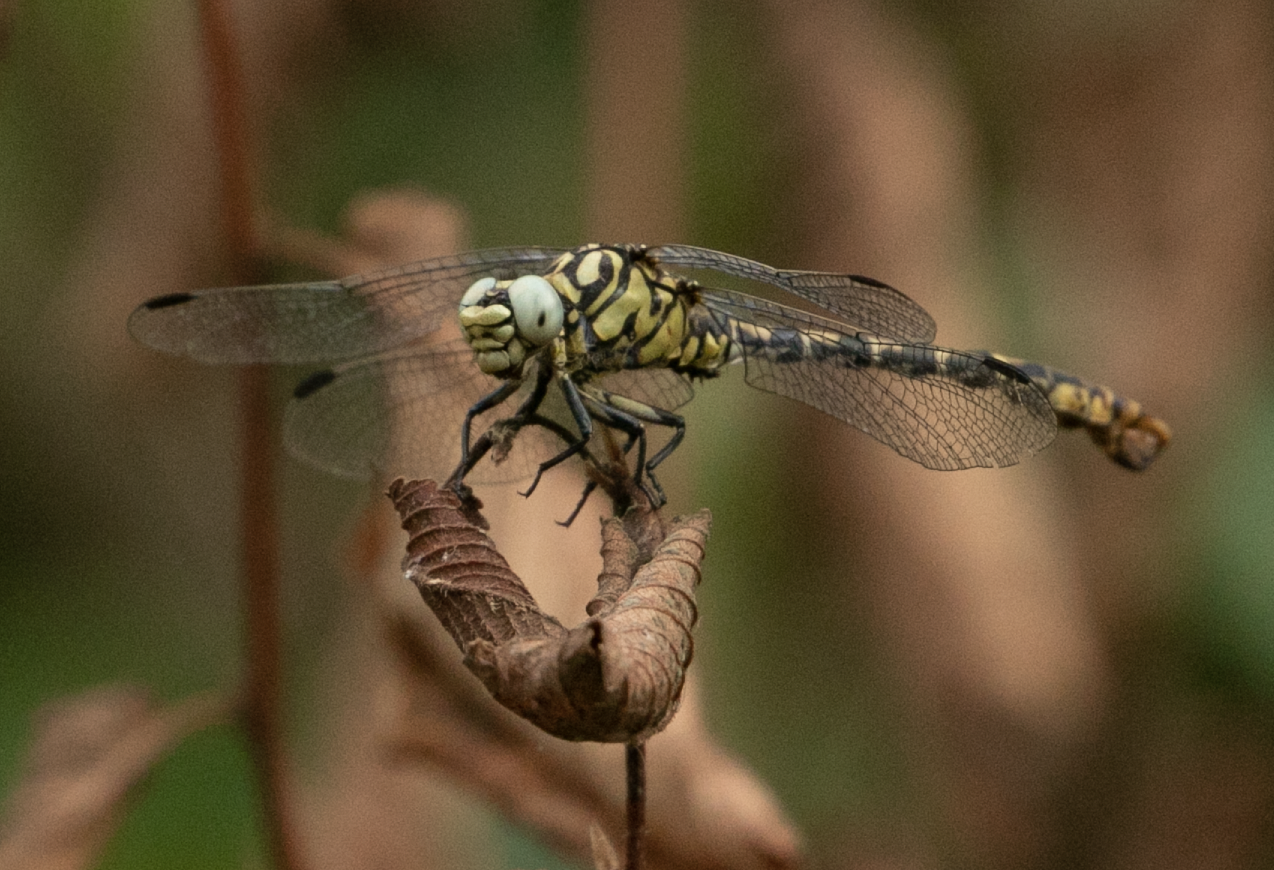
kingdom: Animalia
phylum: Arthropoda
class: Insecta
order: Odonata
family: Gomphidae
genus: Onychogomphus
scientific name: Onychogomphus forcipatus
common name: Small pincertail
